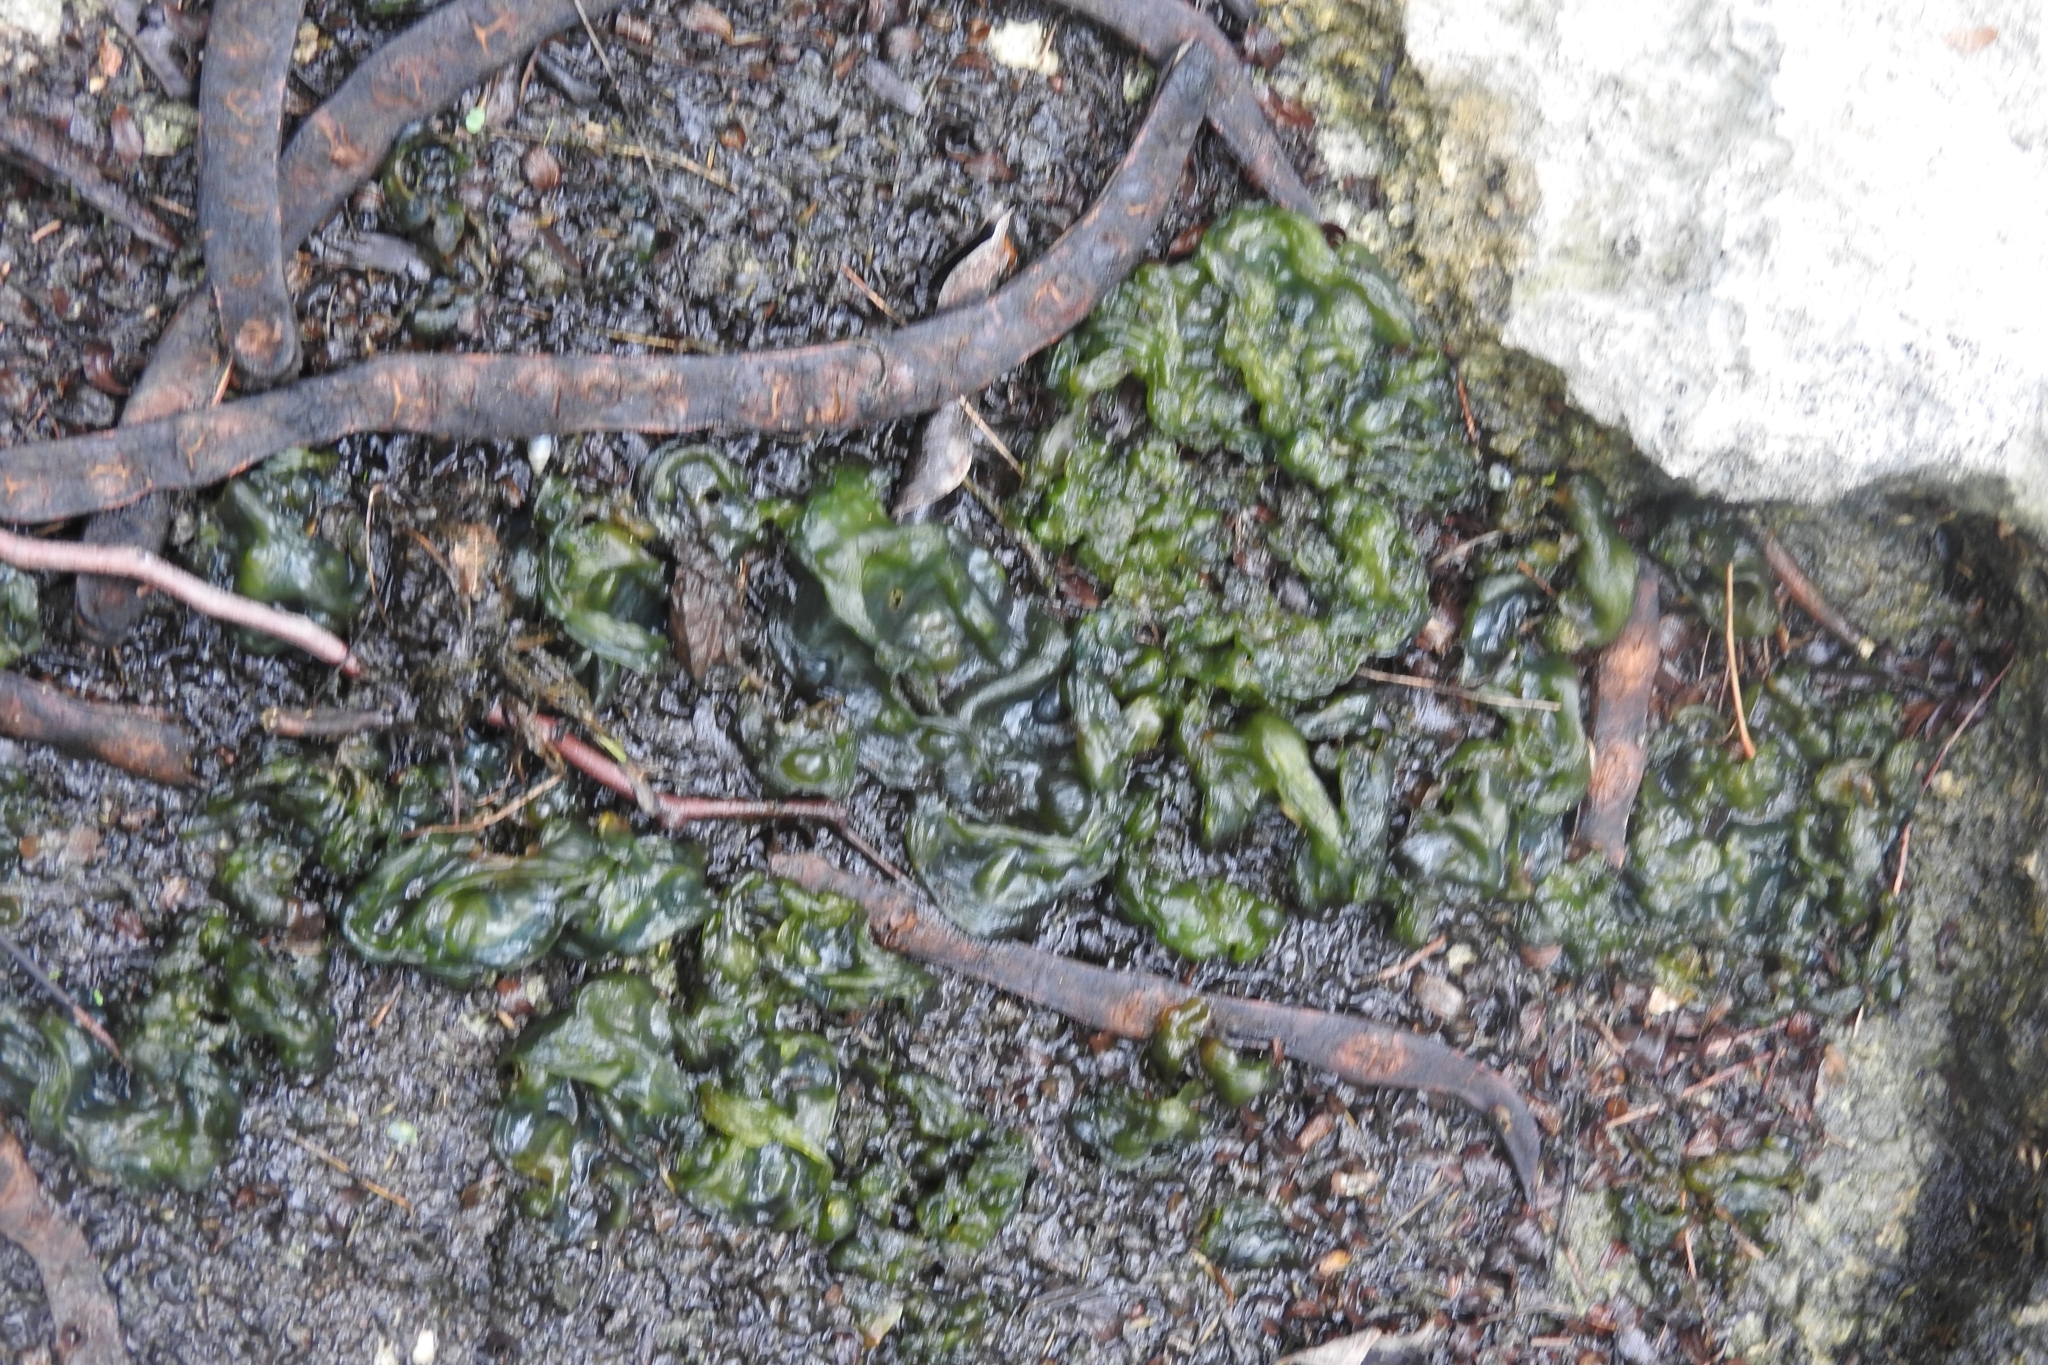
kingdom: Bacteria
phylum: Cyanobacteria
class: Cyanobacteriia
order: Cyanobacteriales
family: Nostocaceae
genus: Nostoc
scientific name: Nostoc commune
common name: Star jelly
